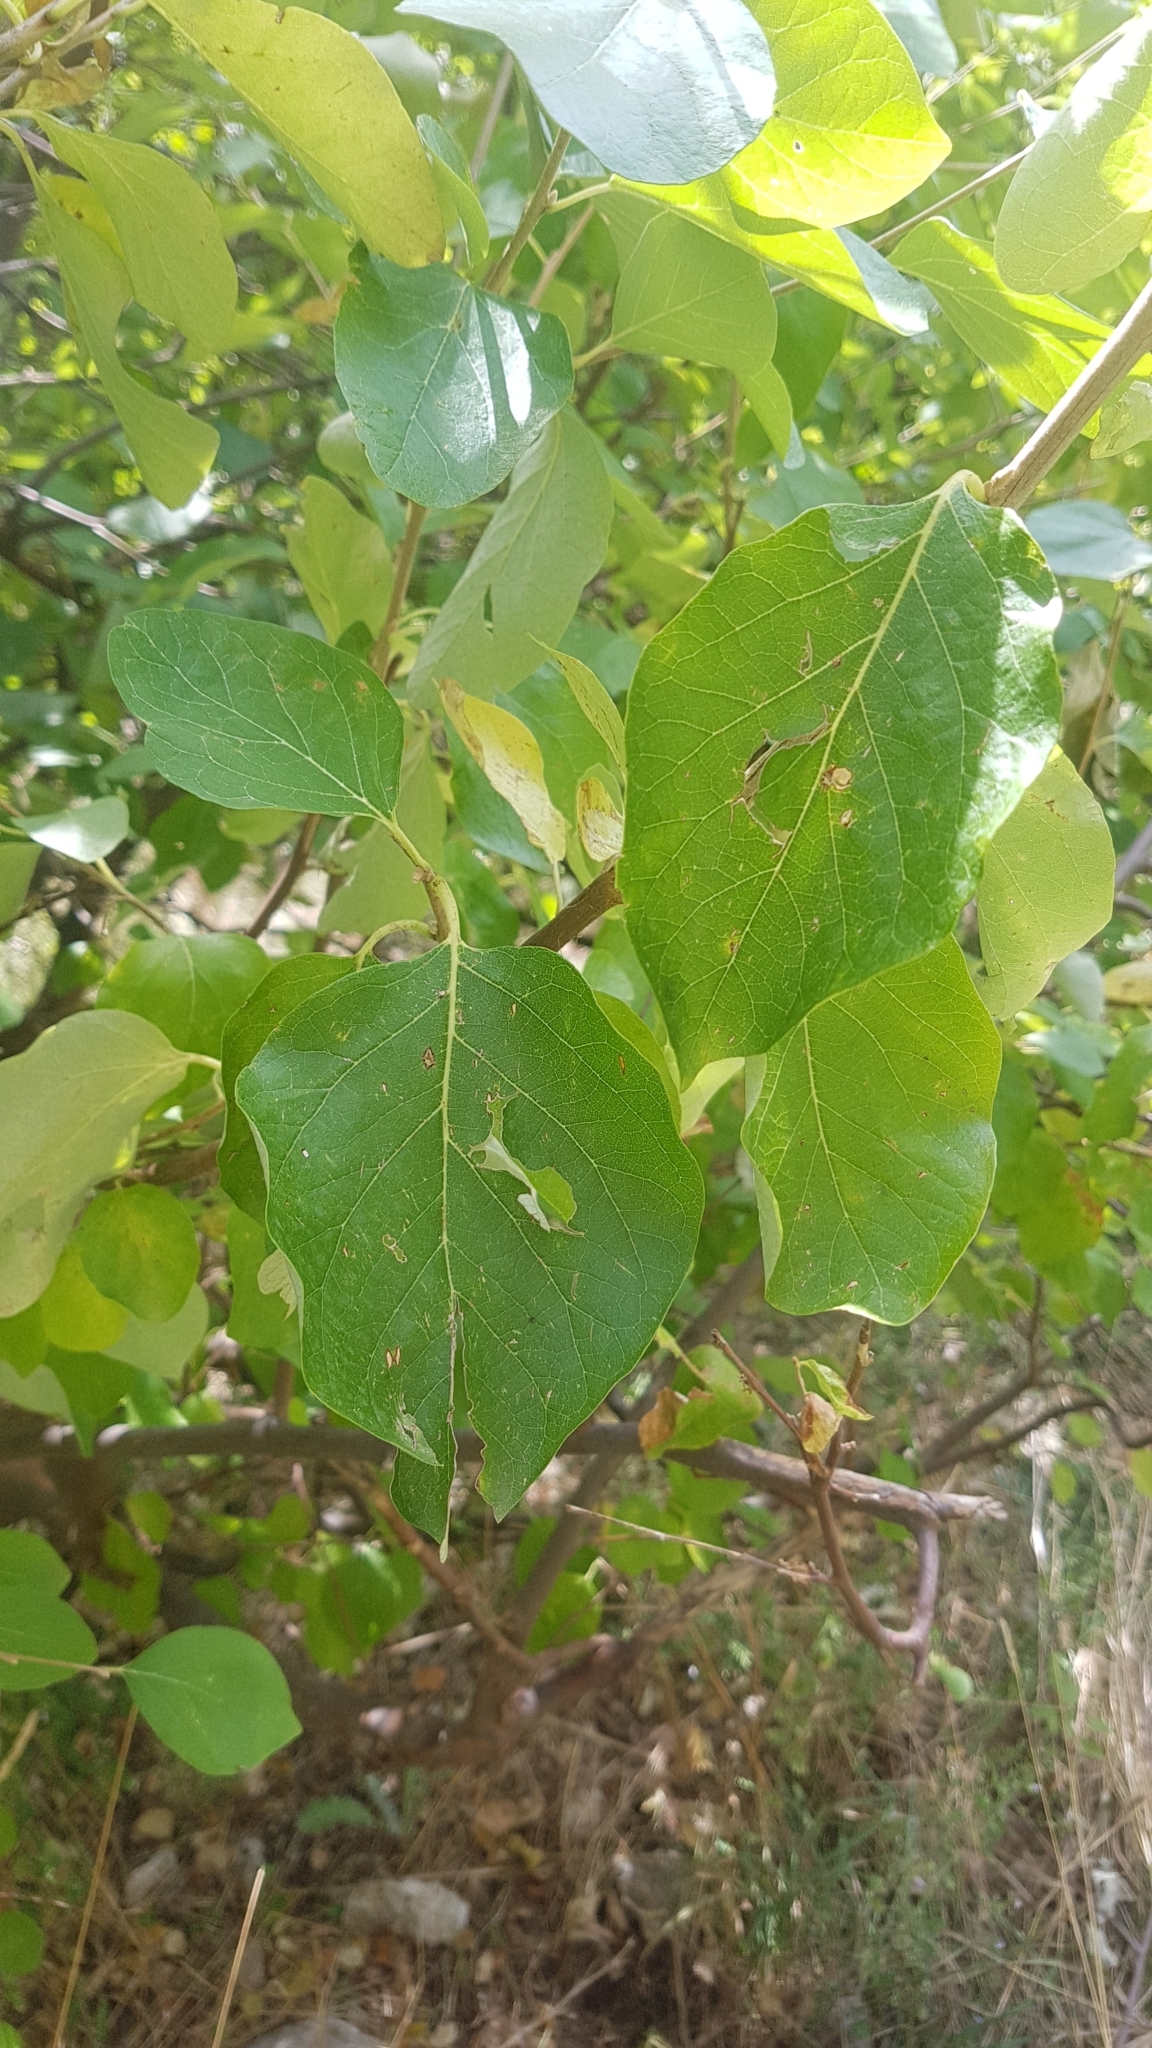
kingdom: Plantae
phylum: Tracheophyta
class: Magnoliopsida
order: Ericales
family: Styracaceae
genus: Styrax
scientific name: Styrax officinalis
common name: Storax
